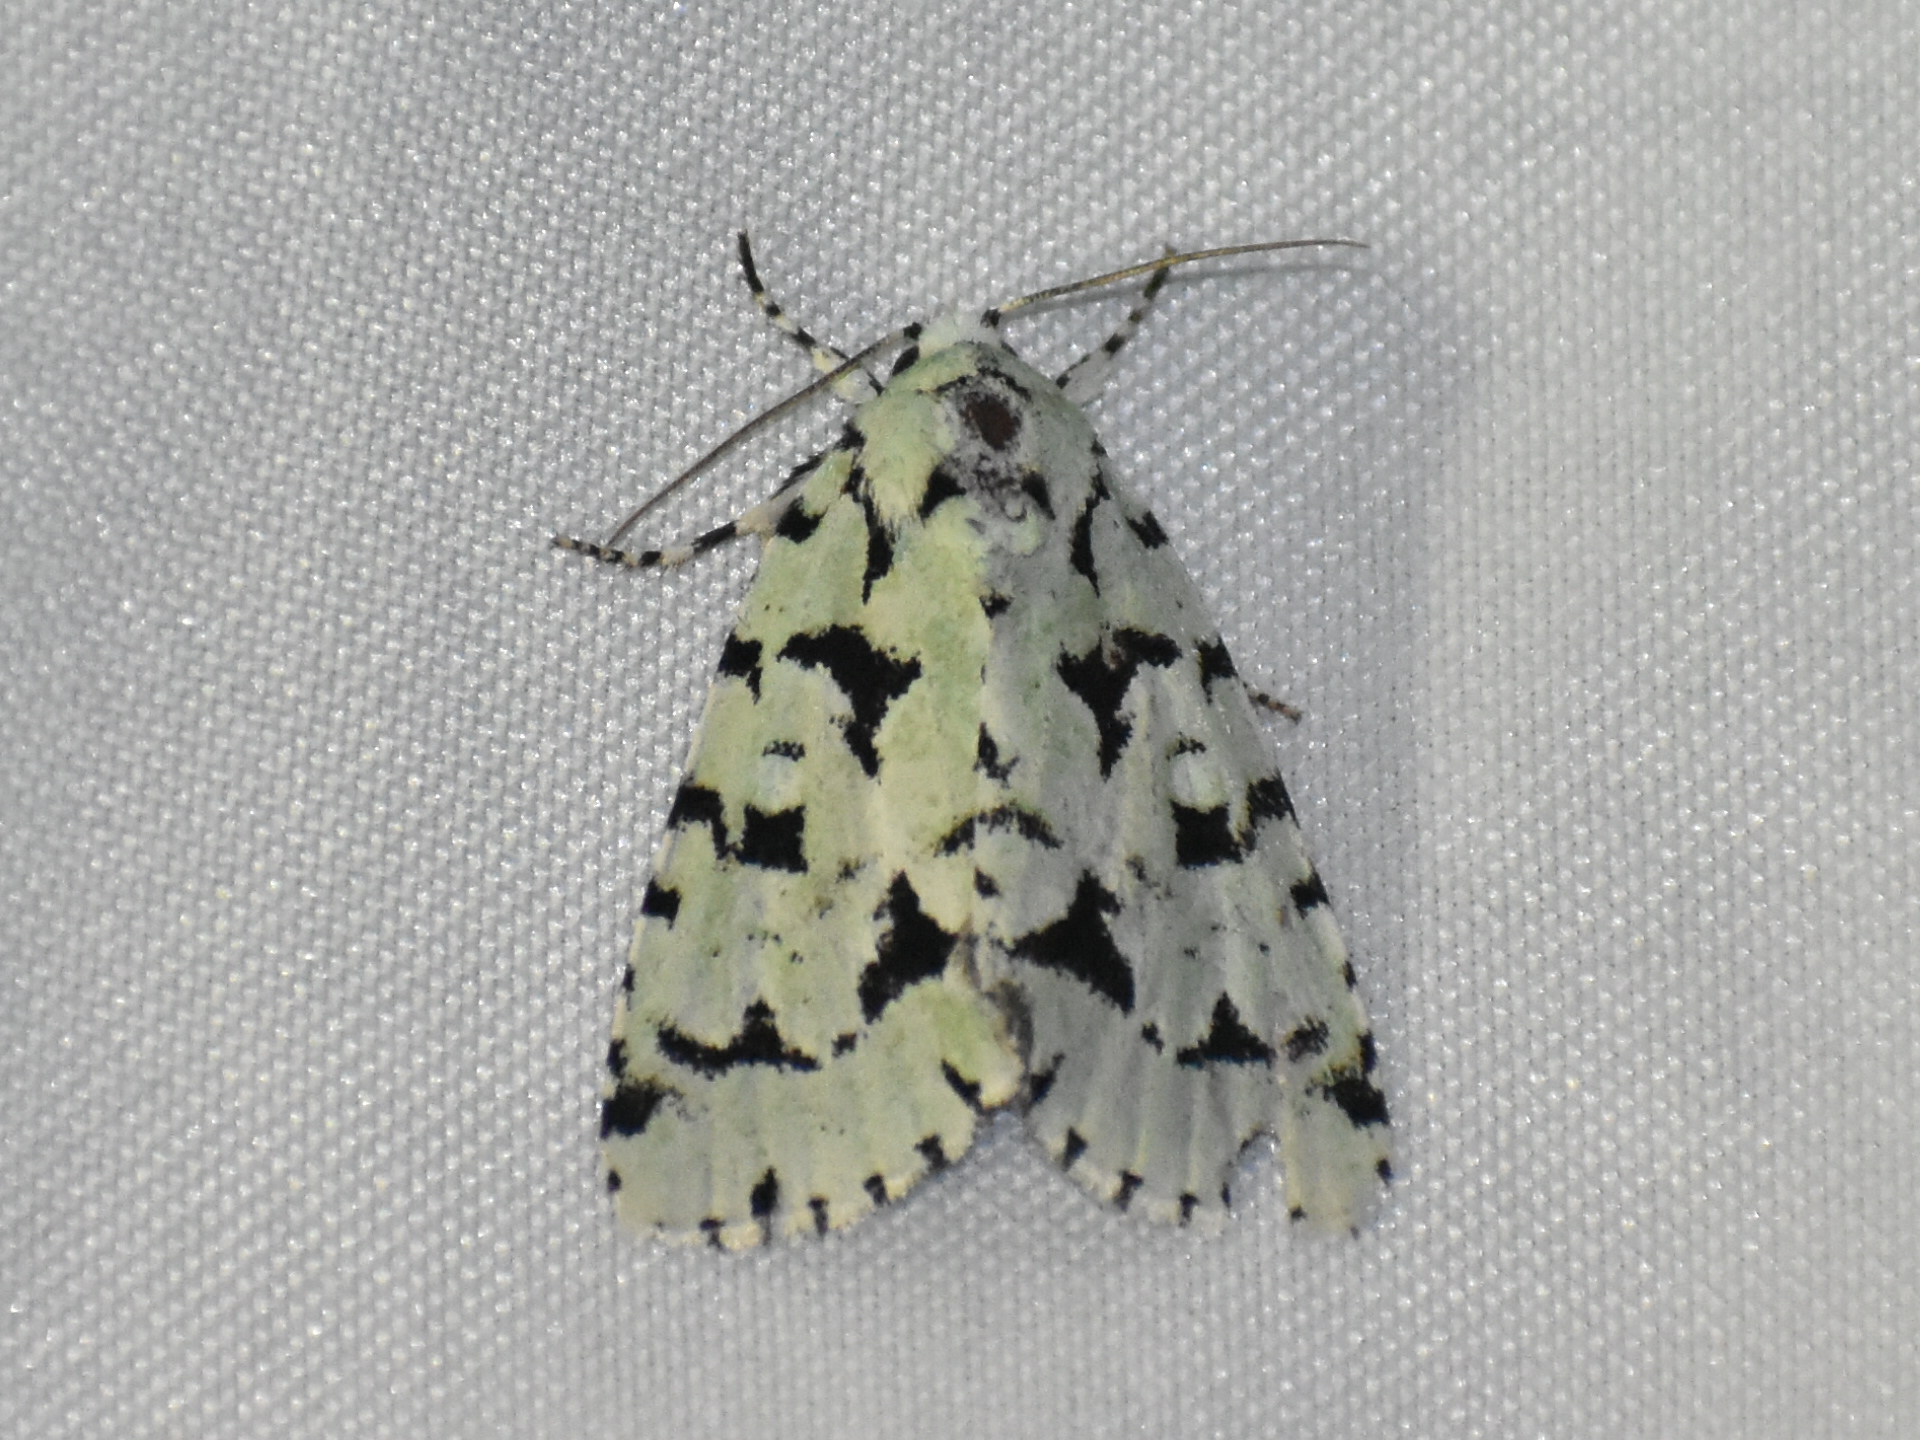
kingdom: Animalia
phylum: Arthropoda
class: Insecta
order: Lepidoptera
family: Noctuidae
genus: Acronicta
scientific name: Acronicta fallax
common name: Green marvel
